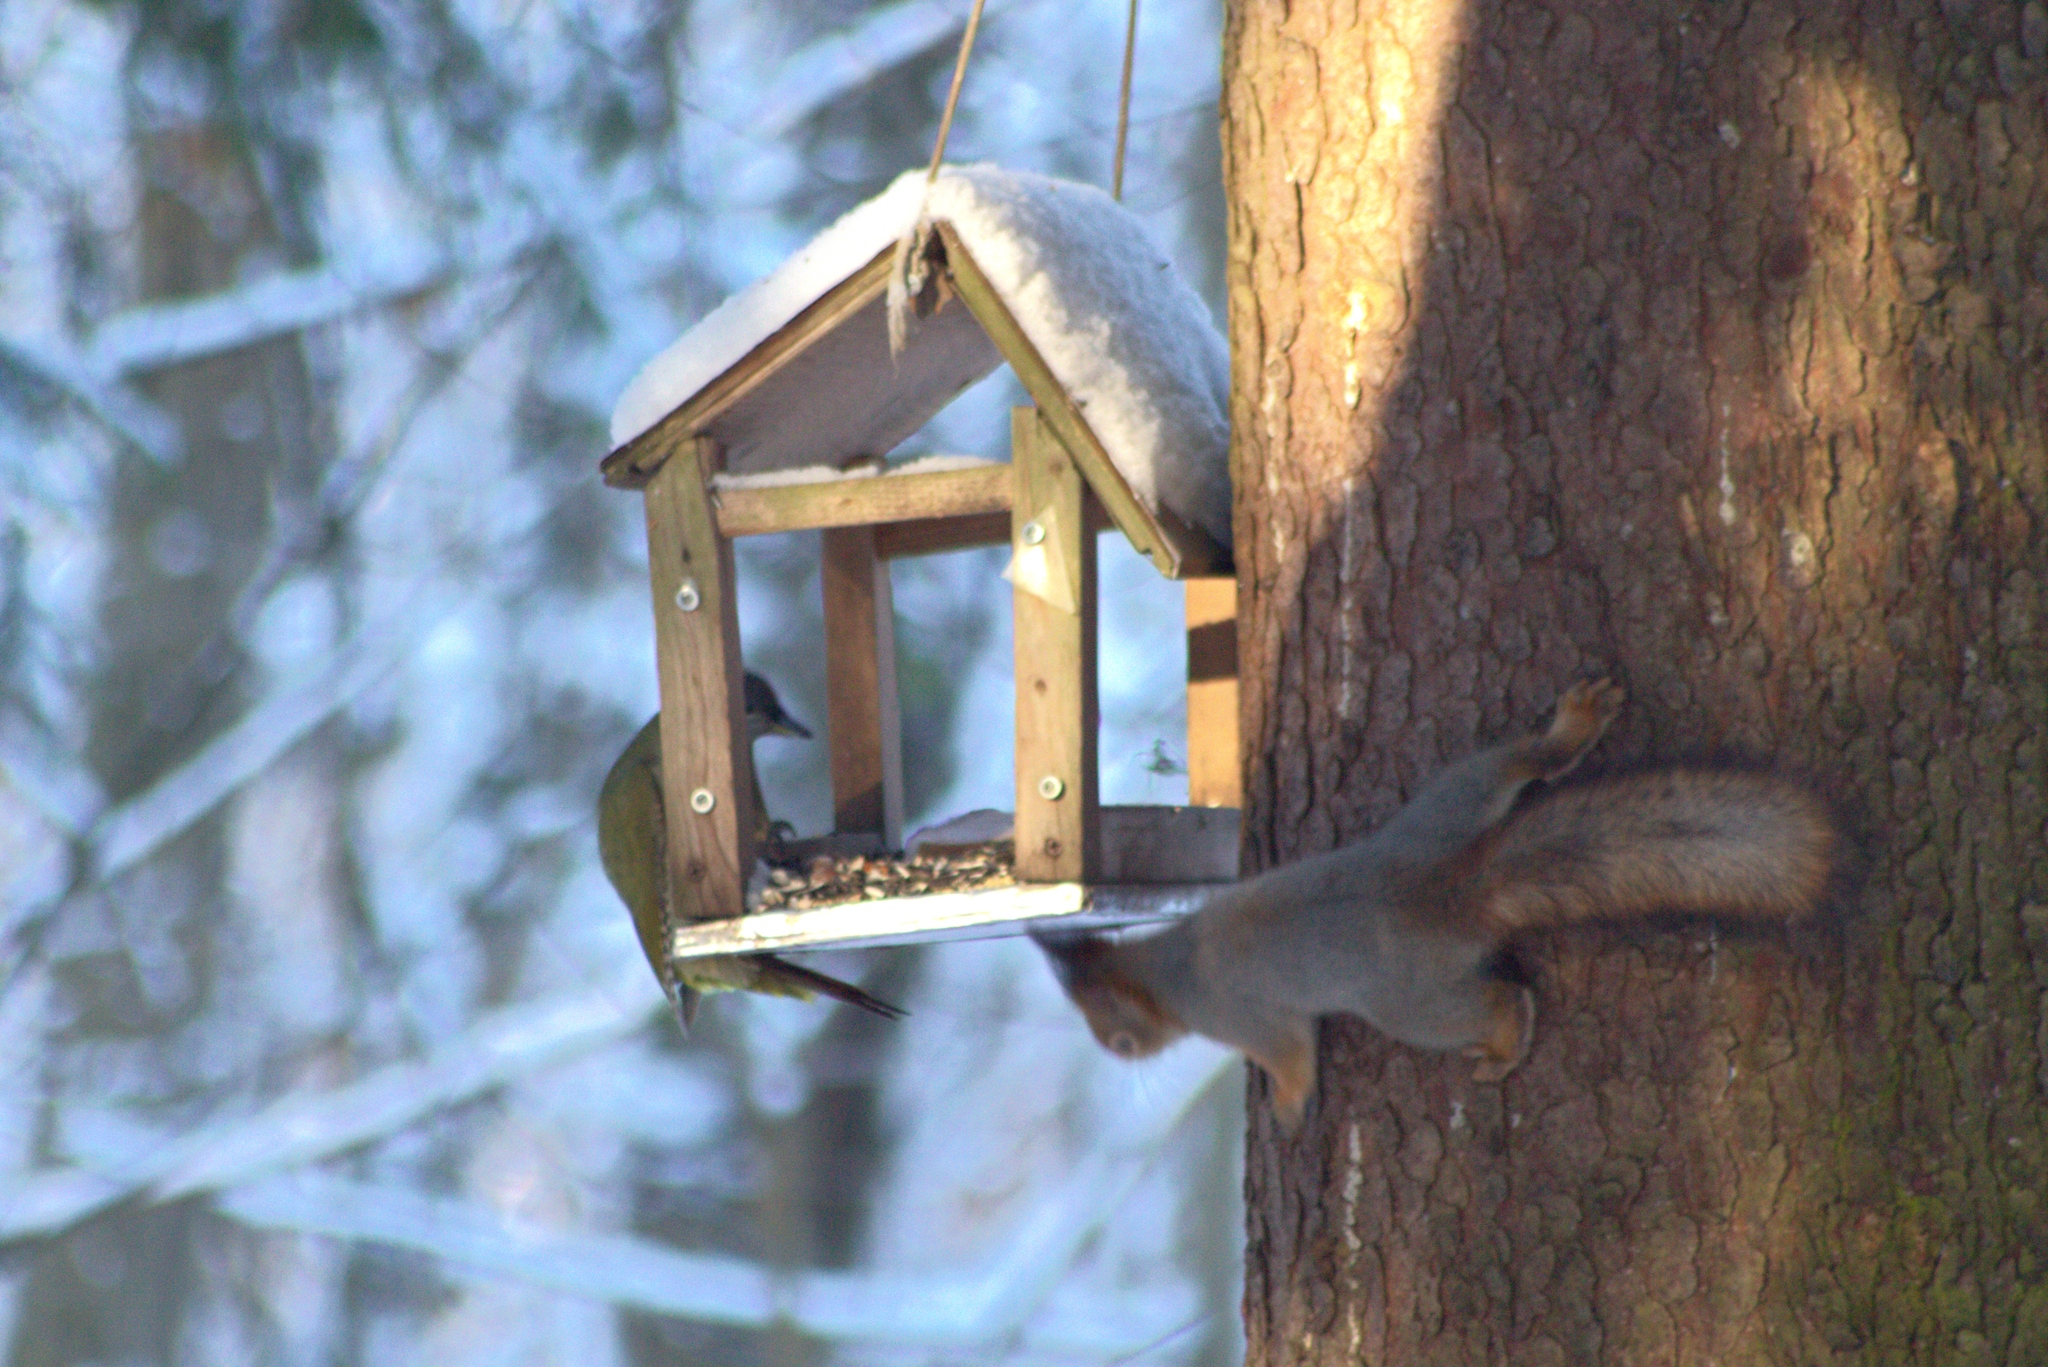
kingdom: Animalia
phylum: Chordata
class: Aves
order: Piciformes
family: Picidae
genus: Picus
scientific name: Picus canus
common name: Grey-headed woodpecker
